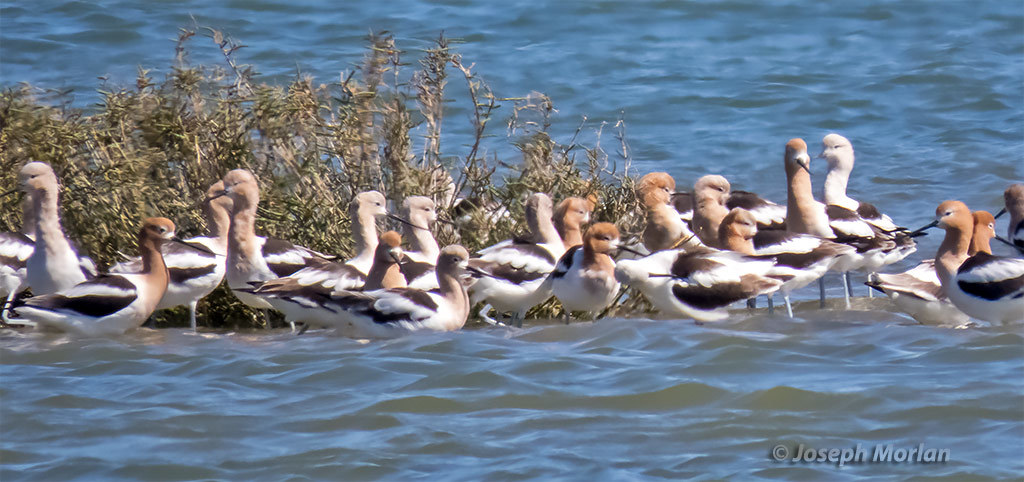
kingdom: Animalia
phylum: Chordata
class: Aves
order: Charadriiformes
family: Recurvirostridae
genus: Recurvirostra
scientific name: Recurvirostra americana
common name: American avocet
